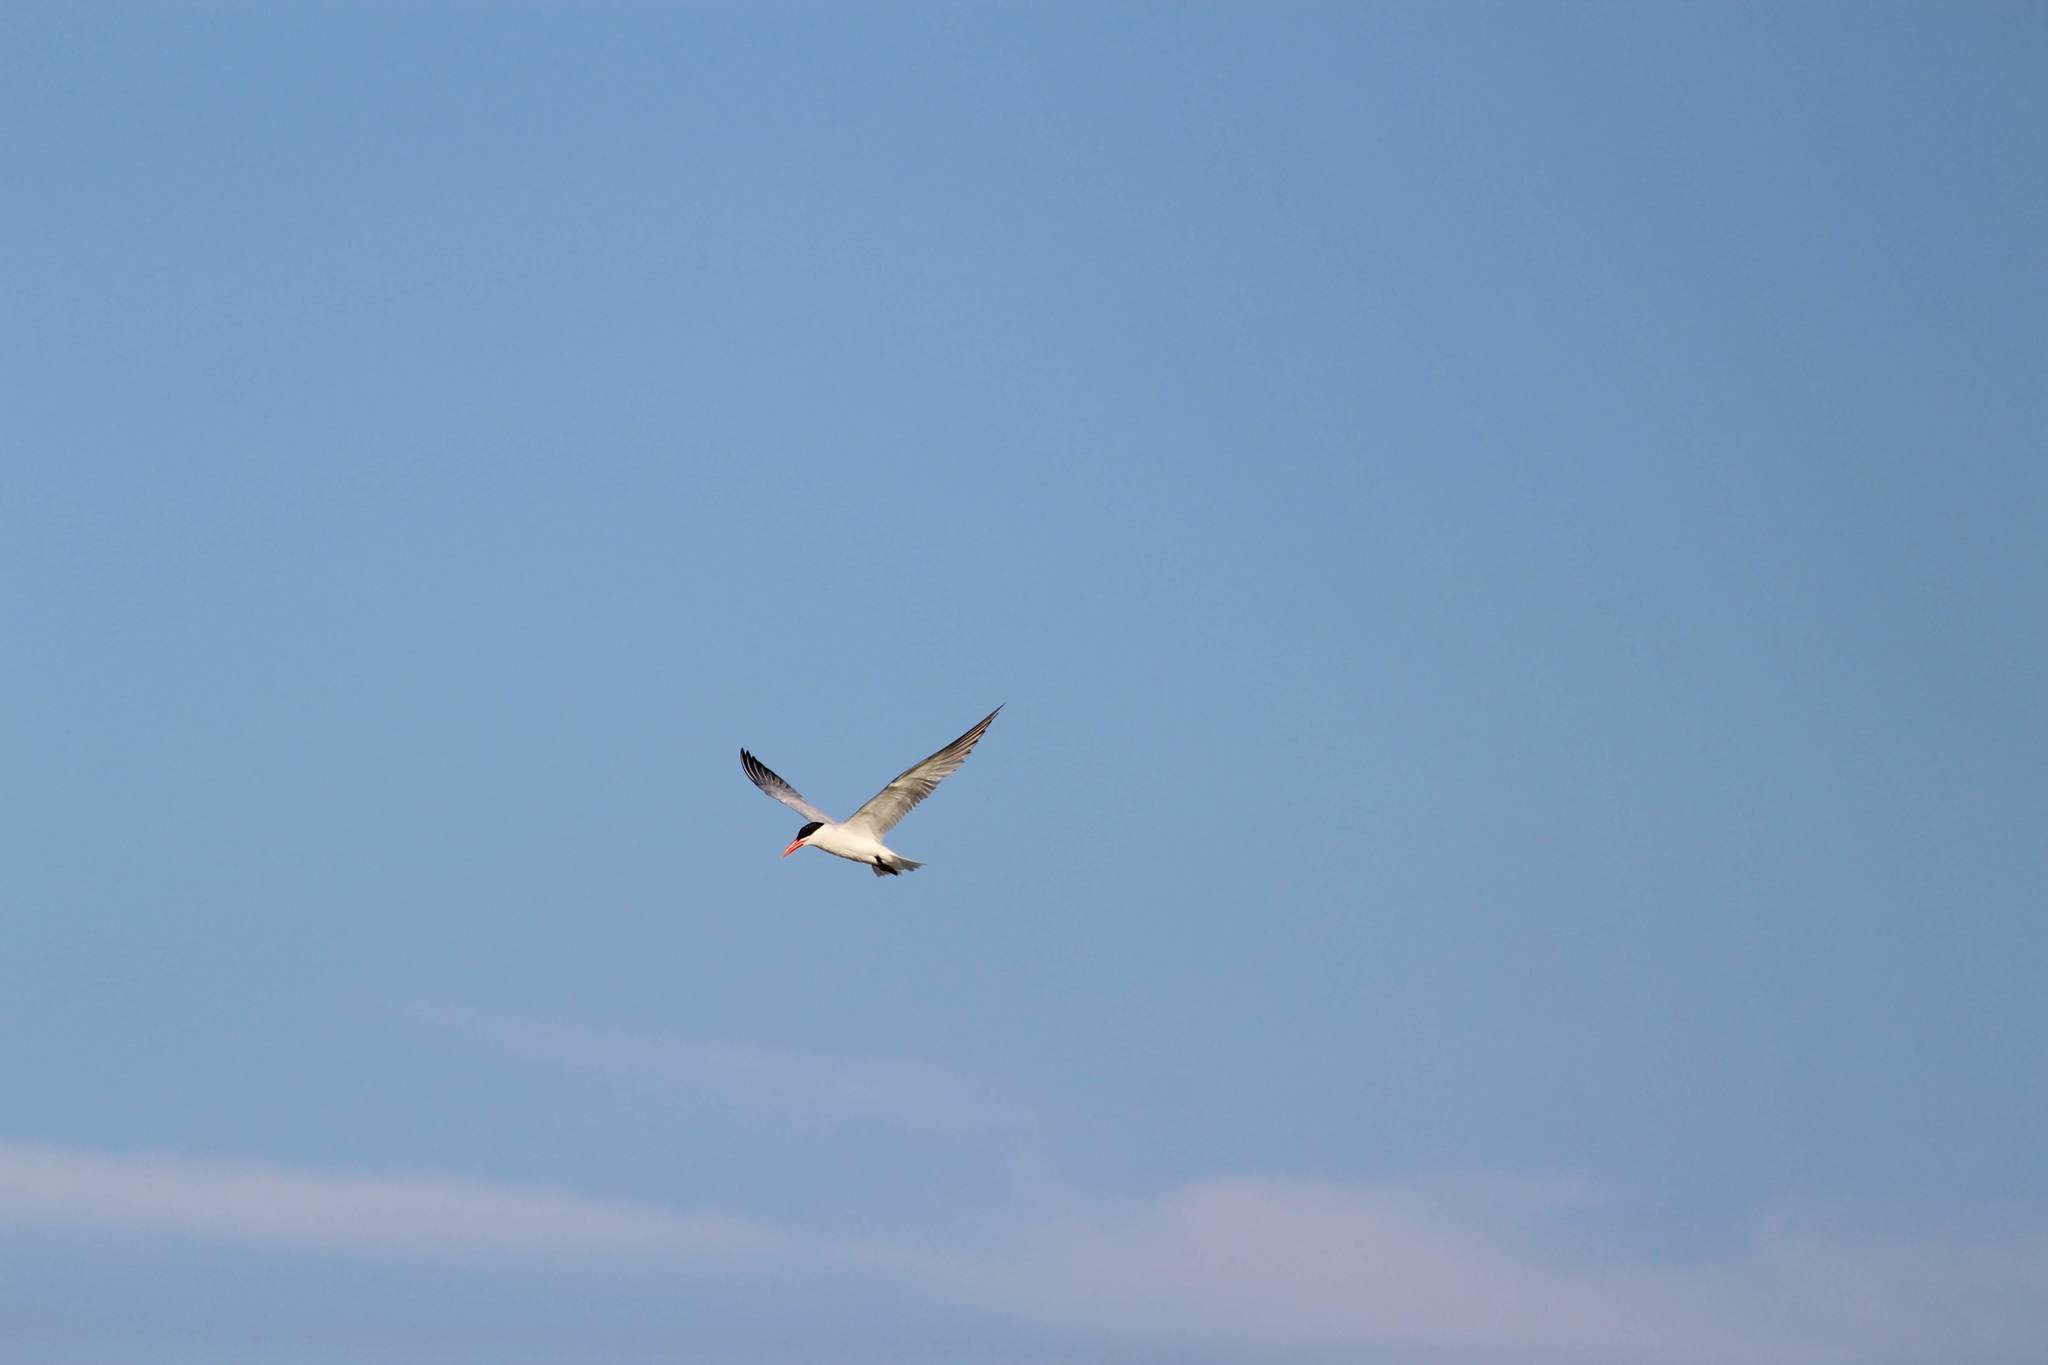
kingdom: Animalia
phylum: Chordata
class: Aves
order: Charadriiformes
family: Laridae
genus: Hydroprogne
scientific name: Hydroprogne caspia
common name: Caspian tern
